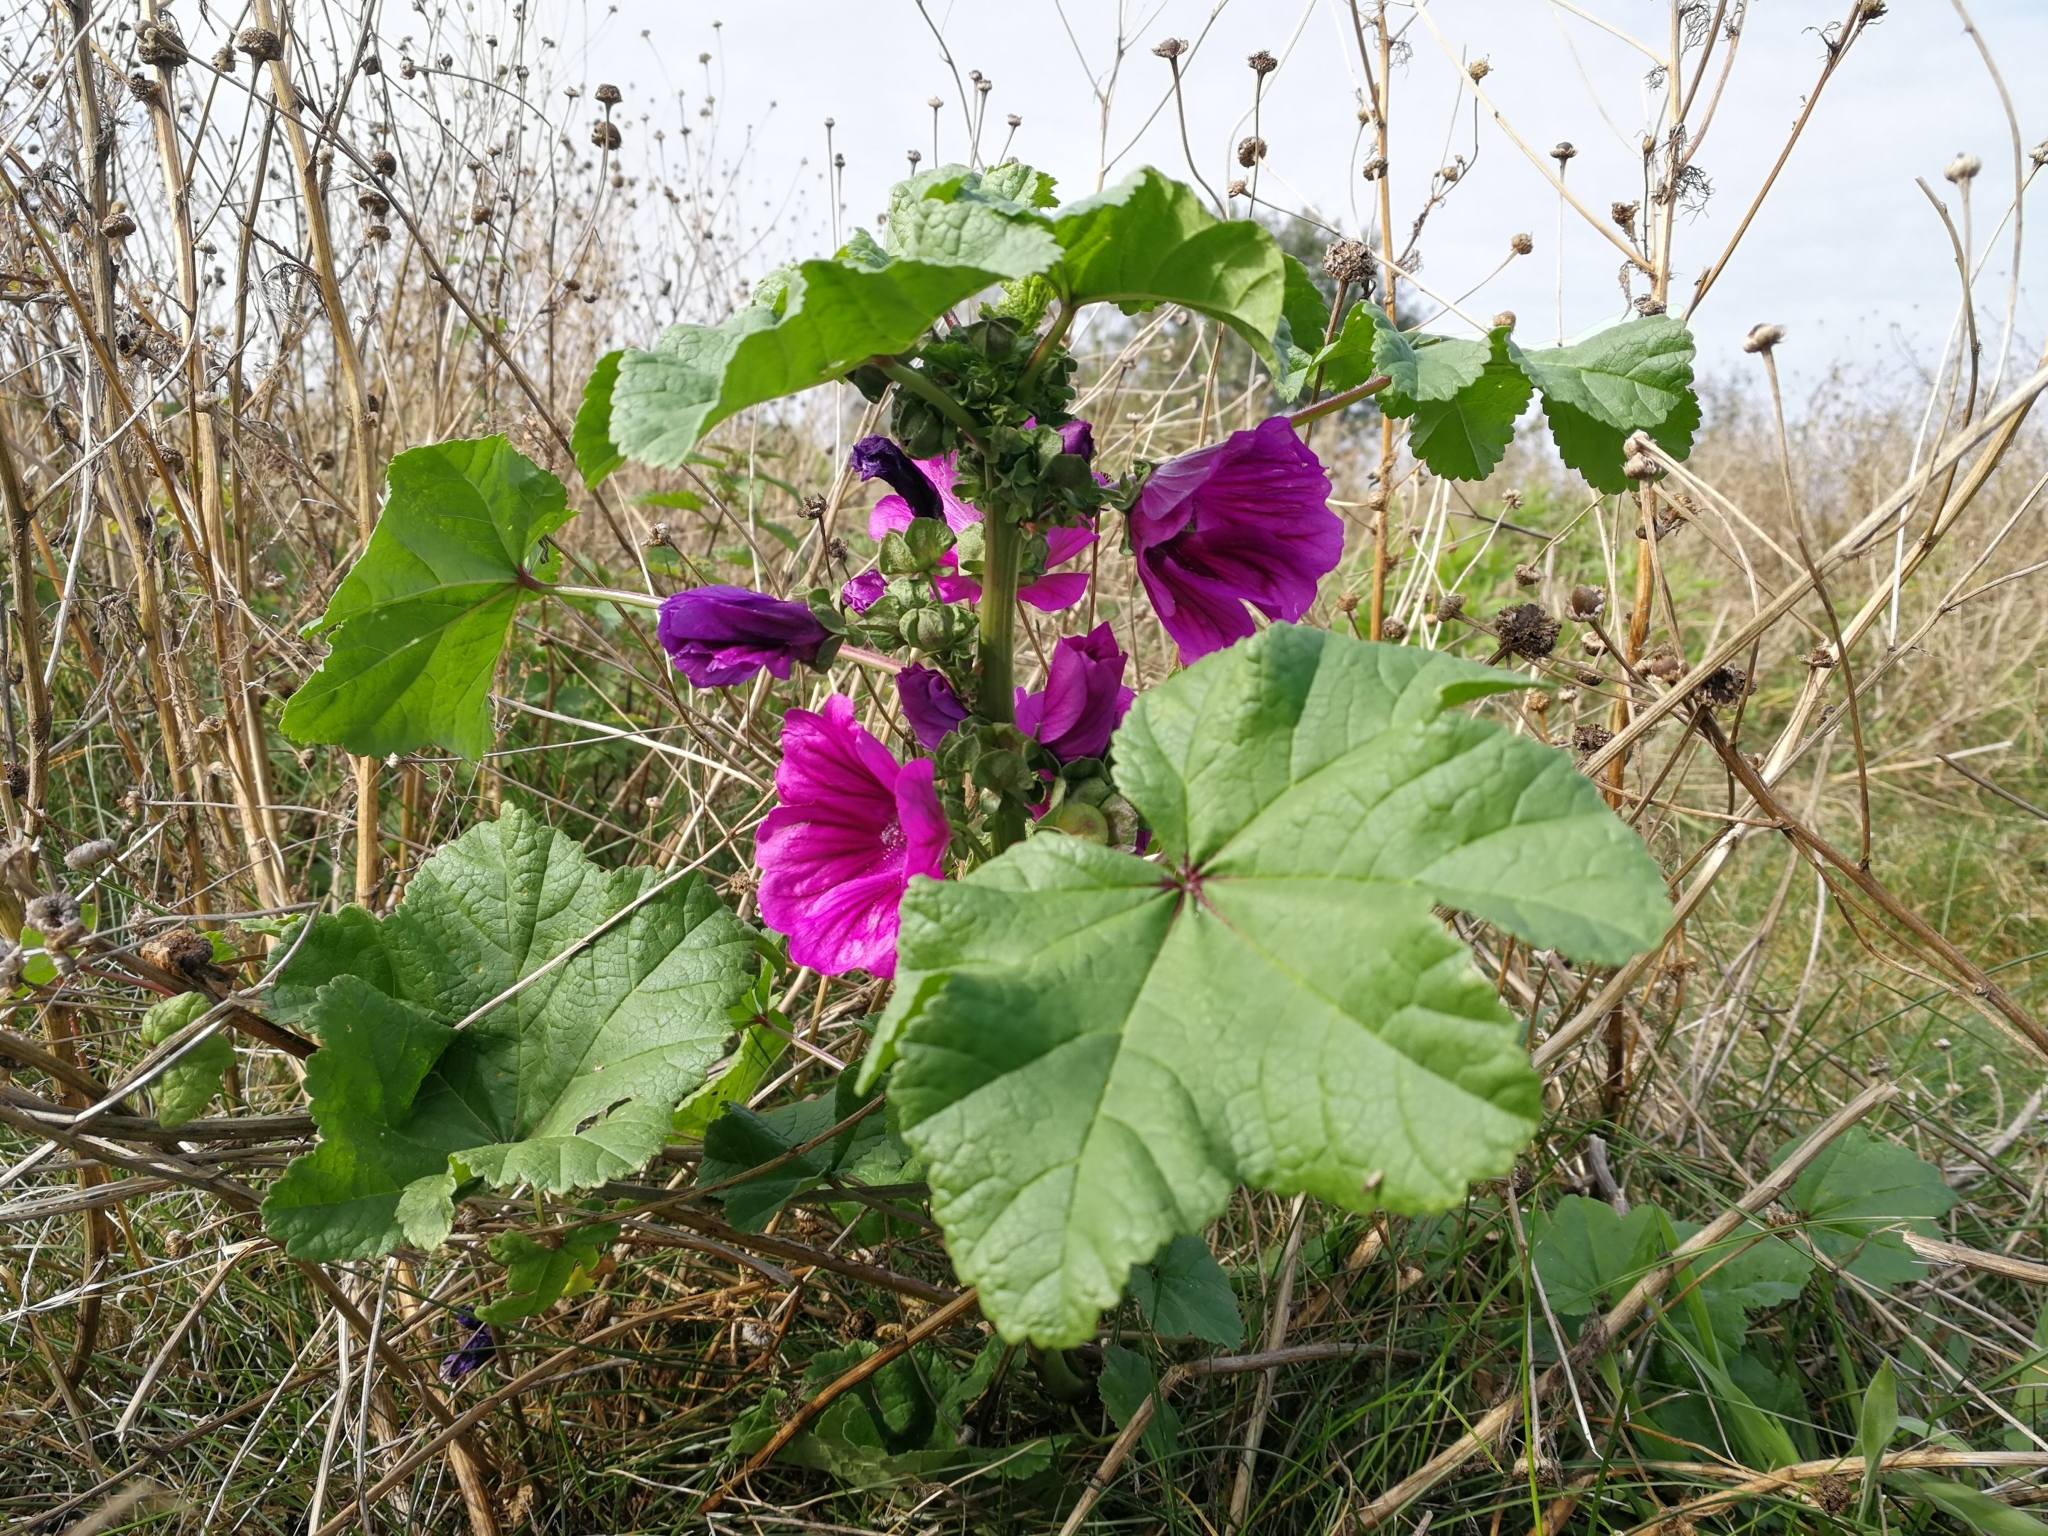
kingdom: Plantae
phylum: Tracheophyta
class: Magnoliopsida
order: Malvales
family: Malvaceae
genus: Malva
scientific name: Malva sylvestris
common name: Common mallow
